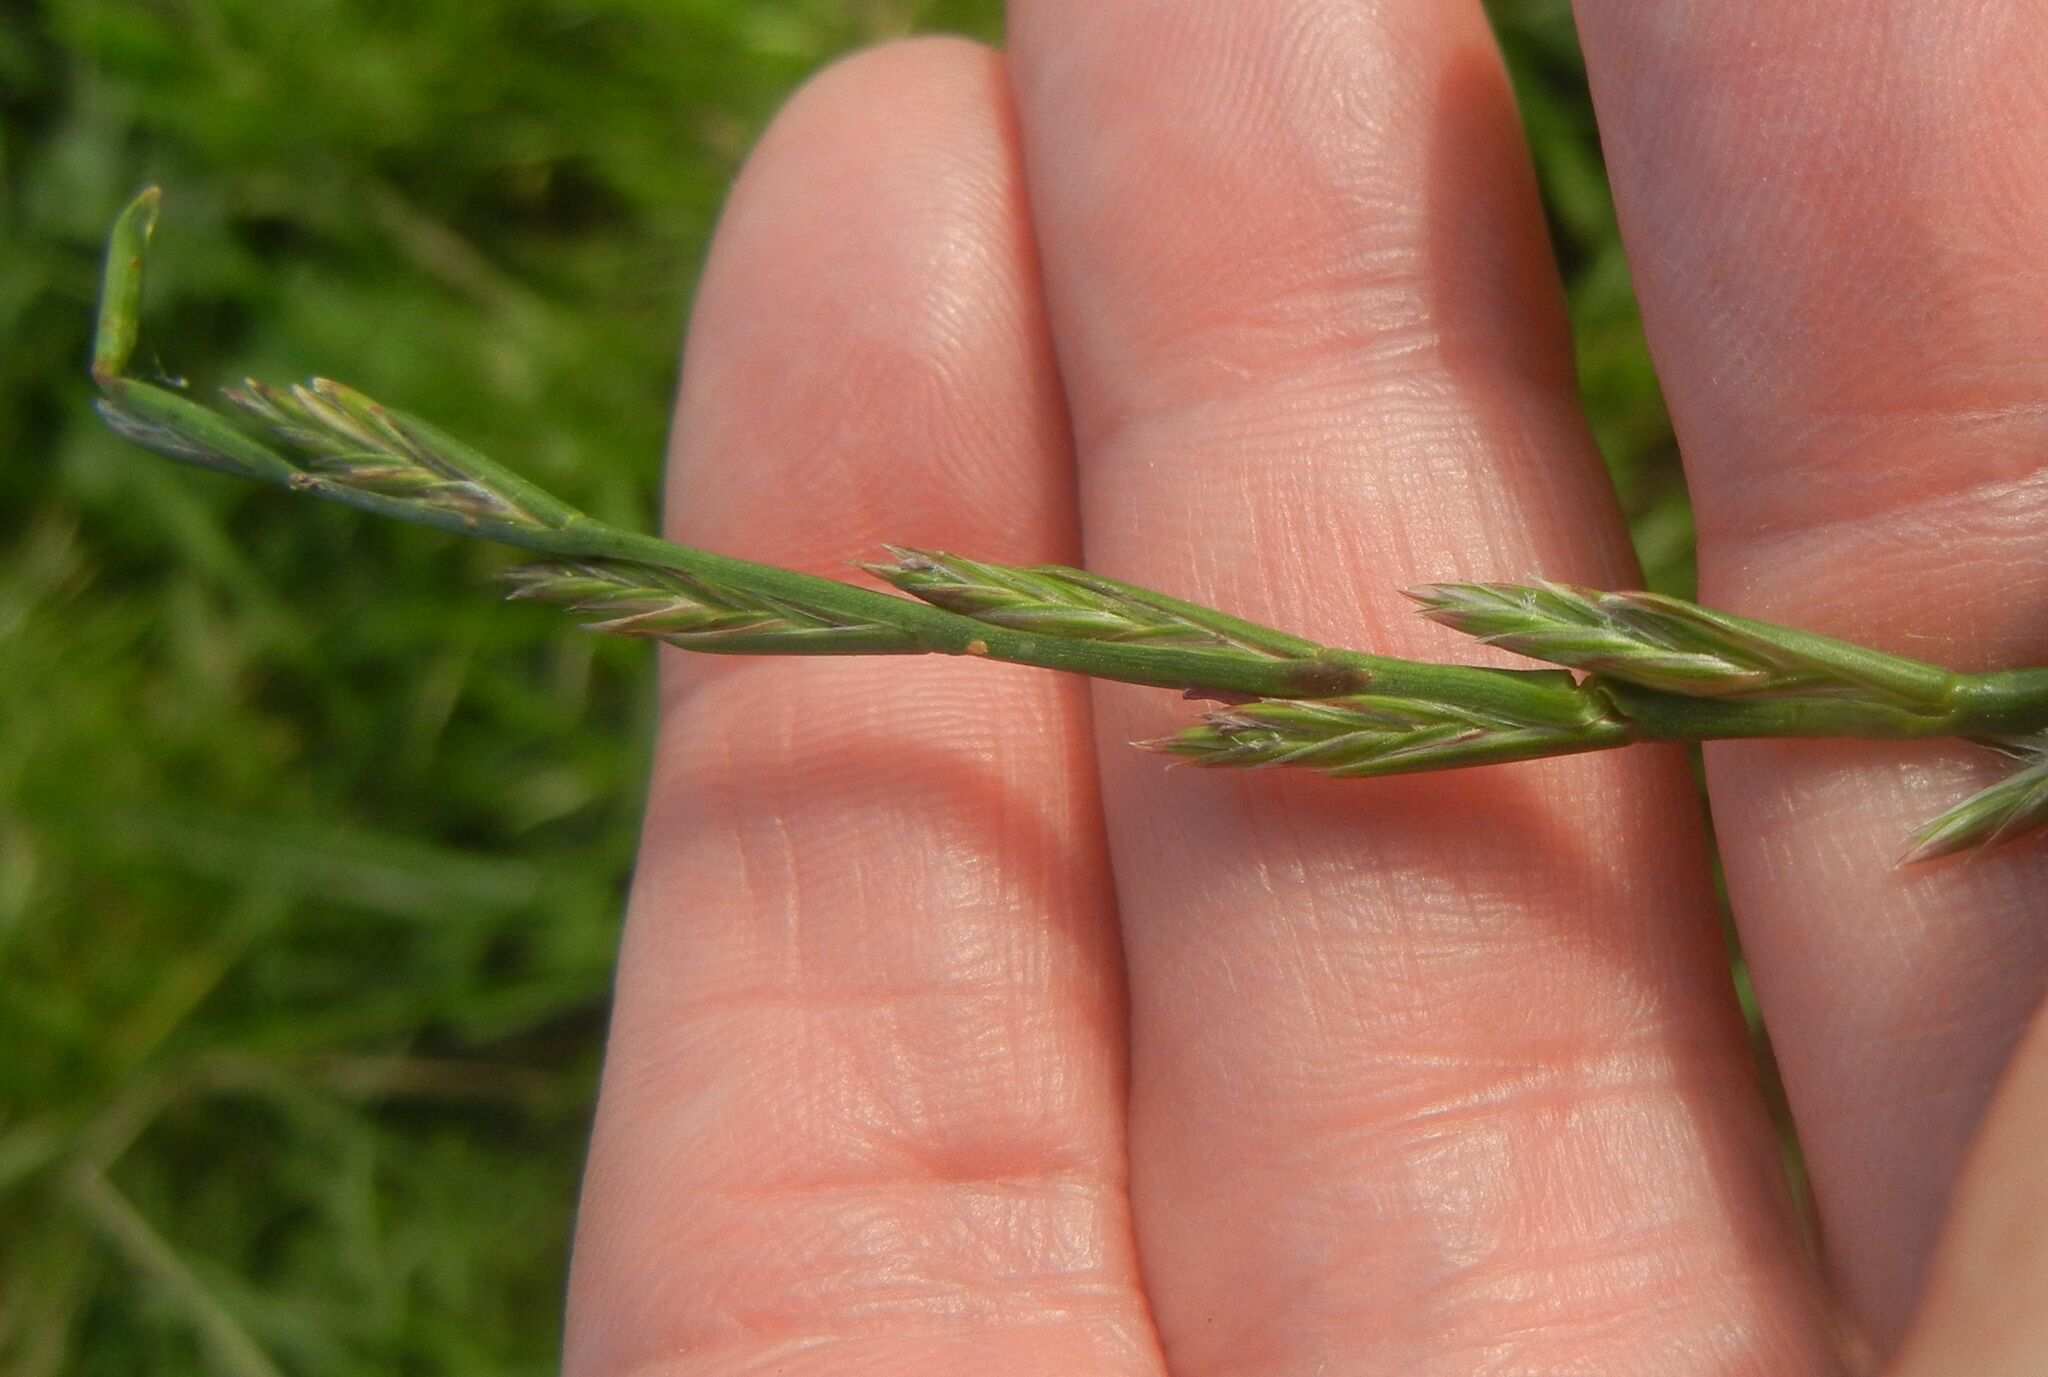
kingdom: Plantae
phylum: Tracheophyta
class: Liliopsida
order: Poales
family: Poaceae
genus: Lolium
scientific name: Lolium perenne
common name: Perennial ryegrass
